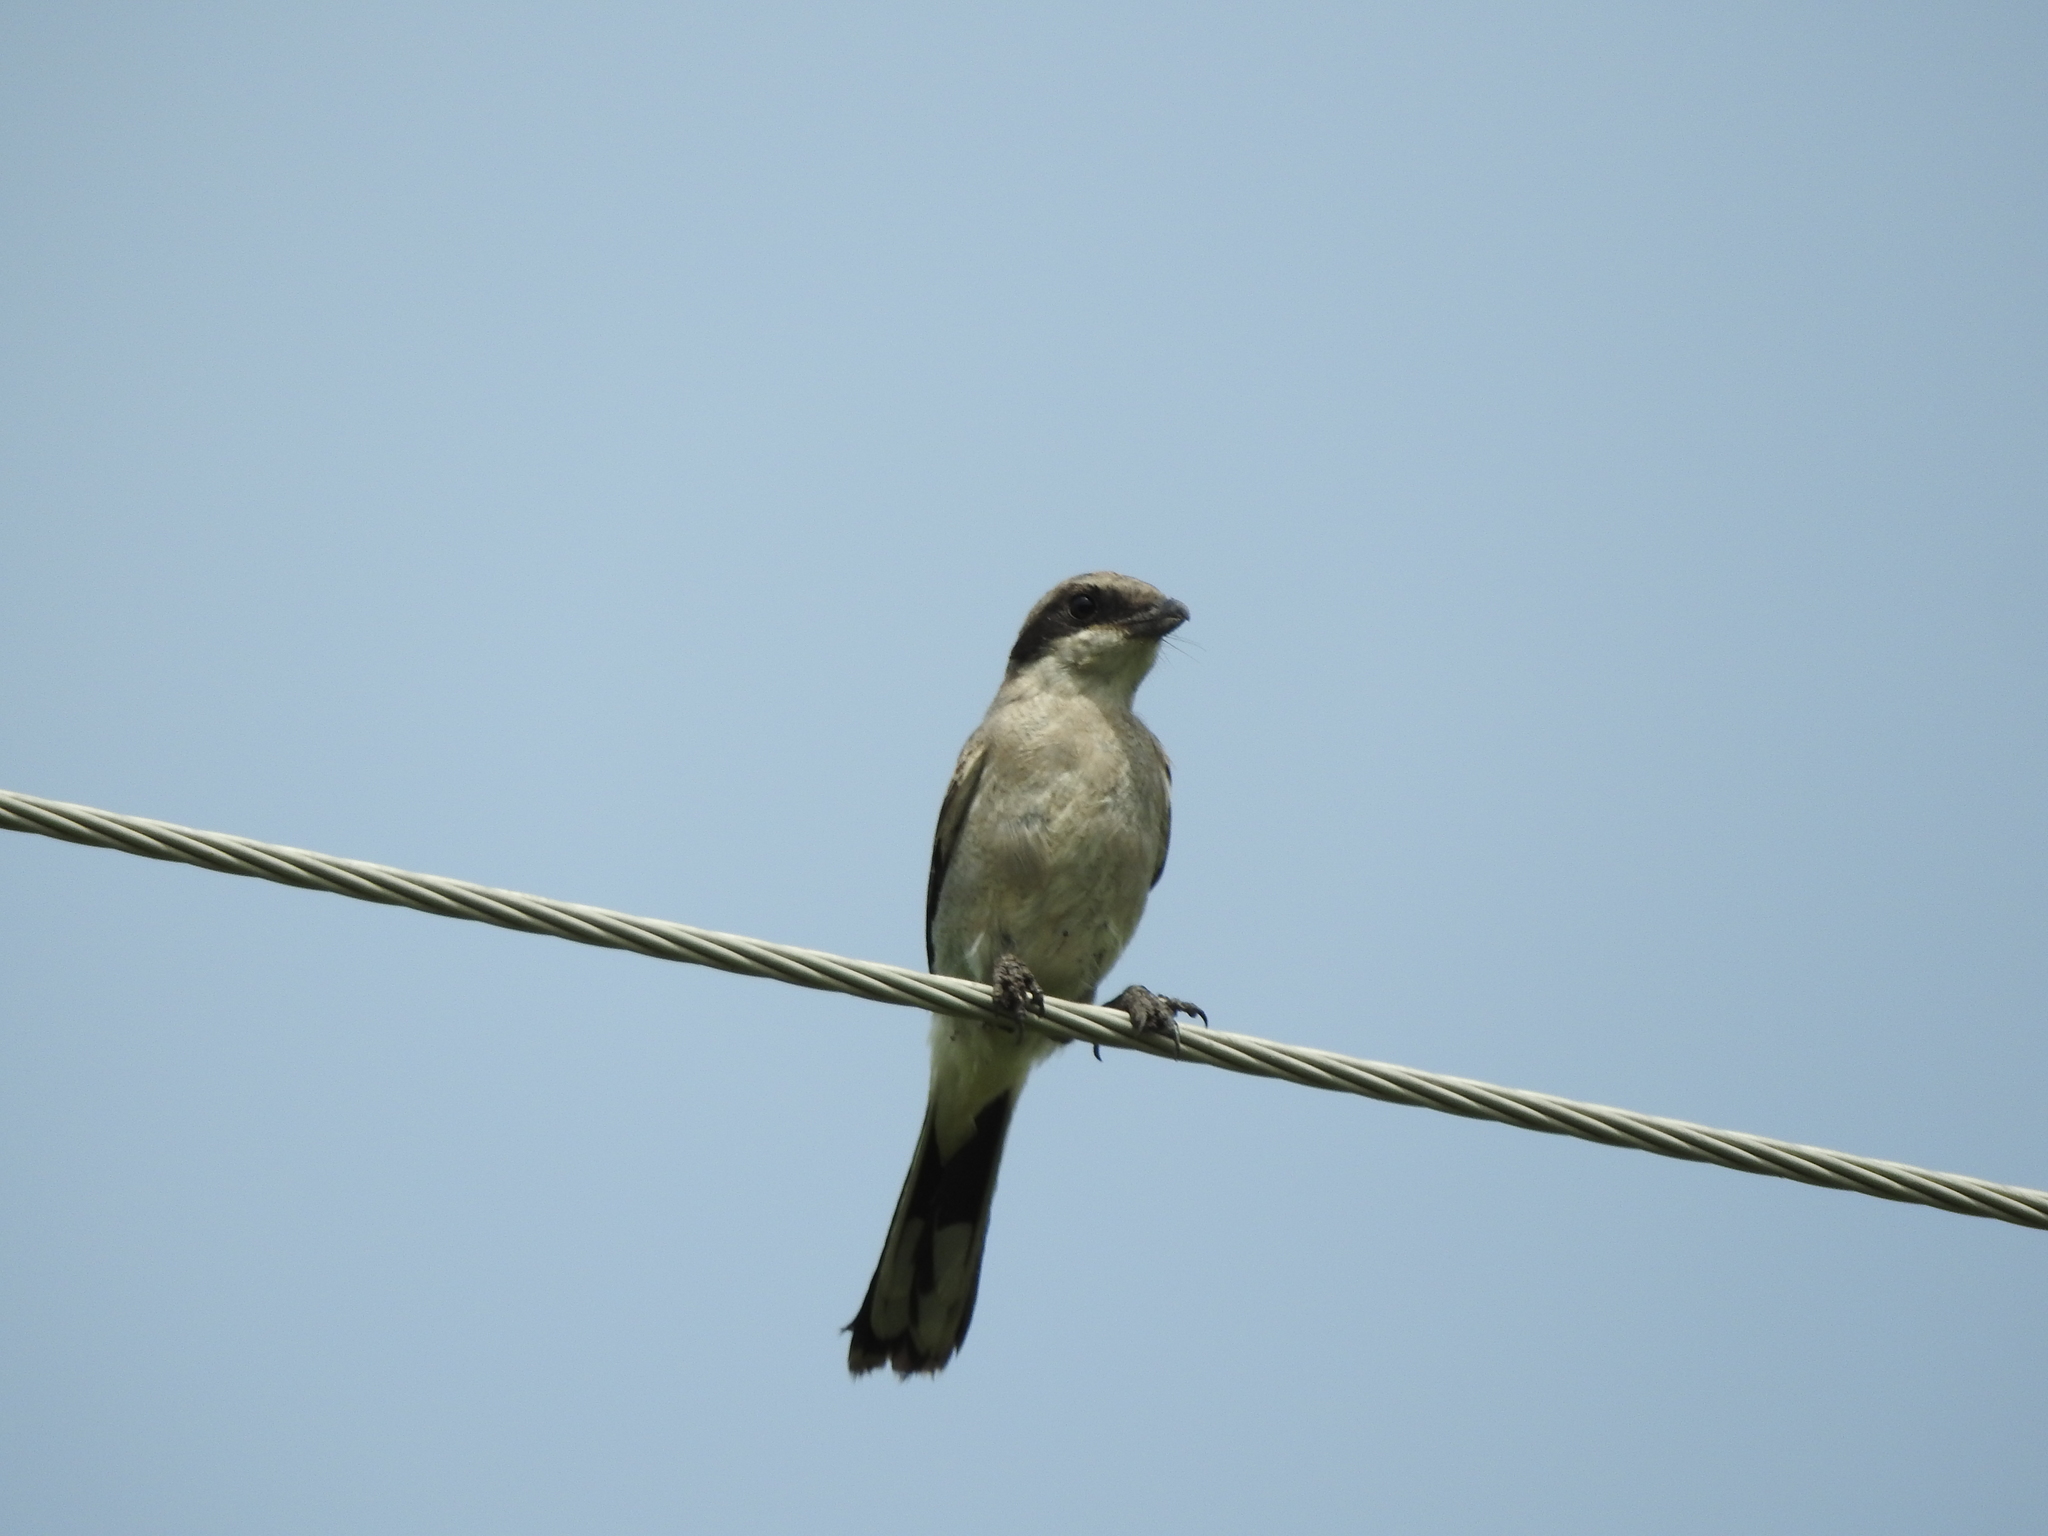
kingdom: Animalia
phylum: Chordata
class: Aves
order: Passeriformes
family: Laniidae
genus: Lanius
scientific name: Lanius ludovicianus
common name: Loggerhead shrike
